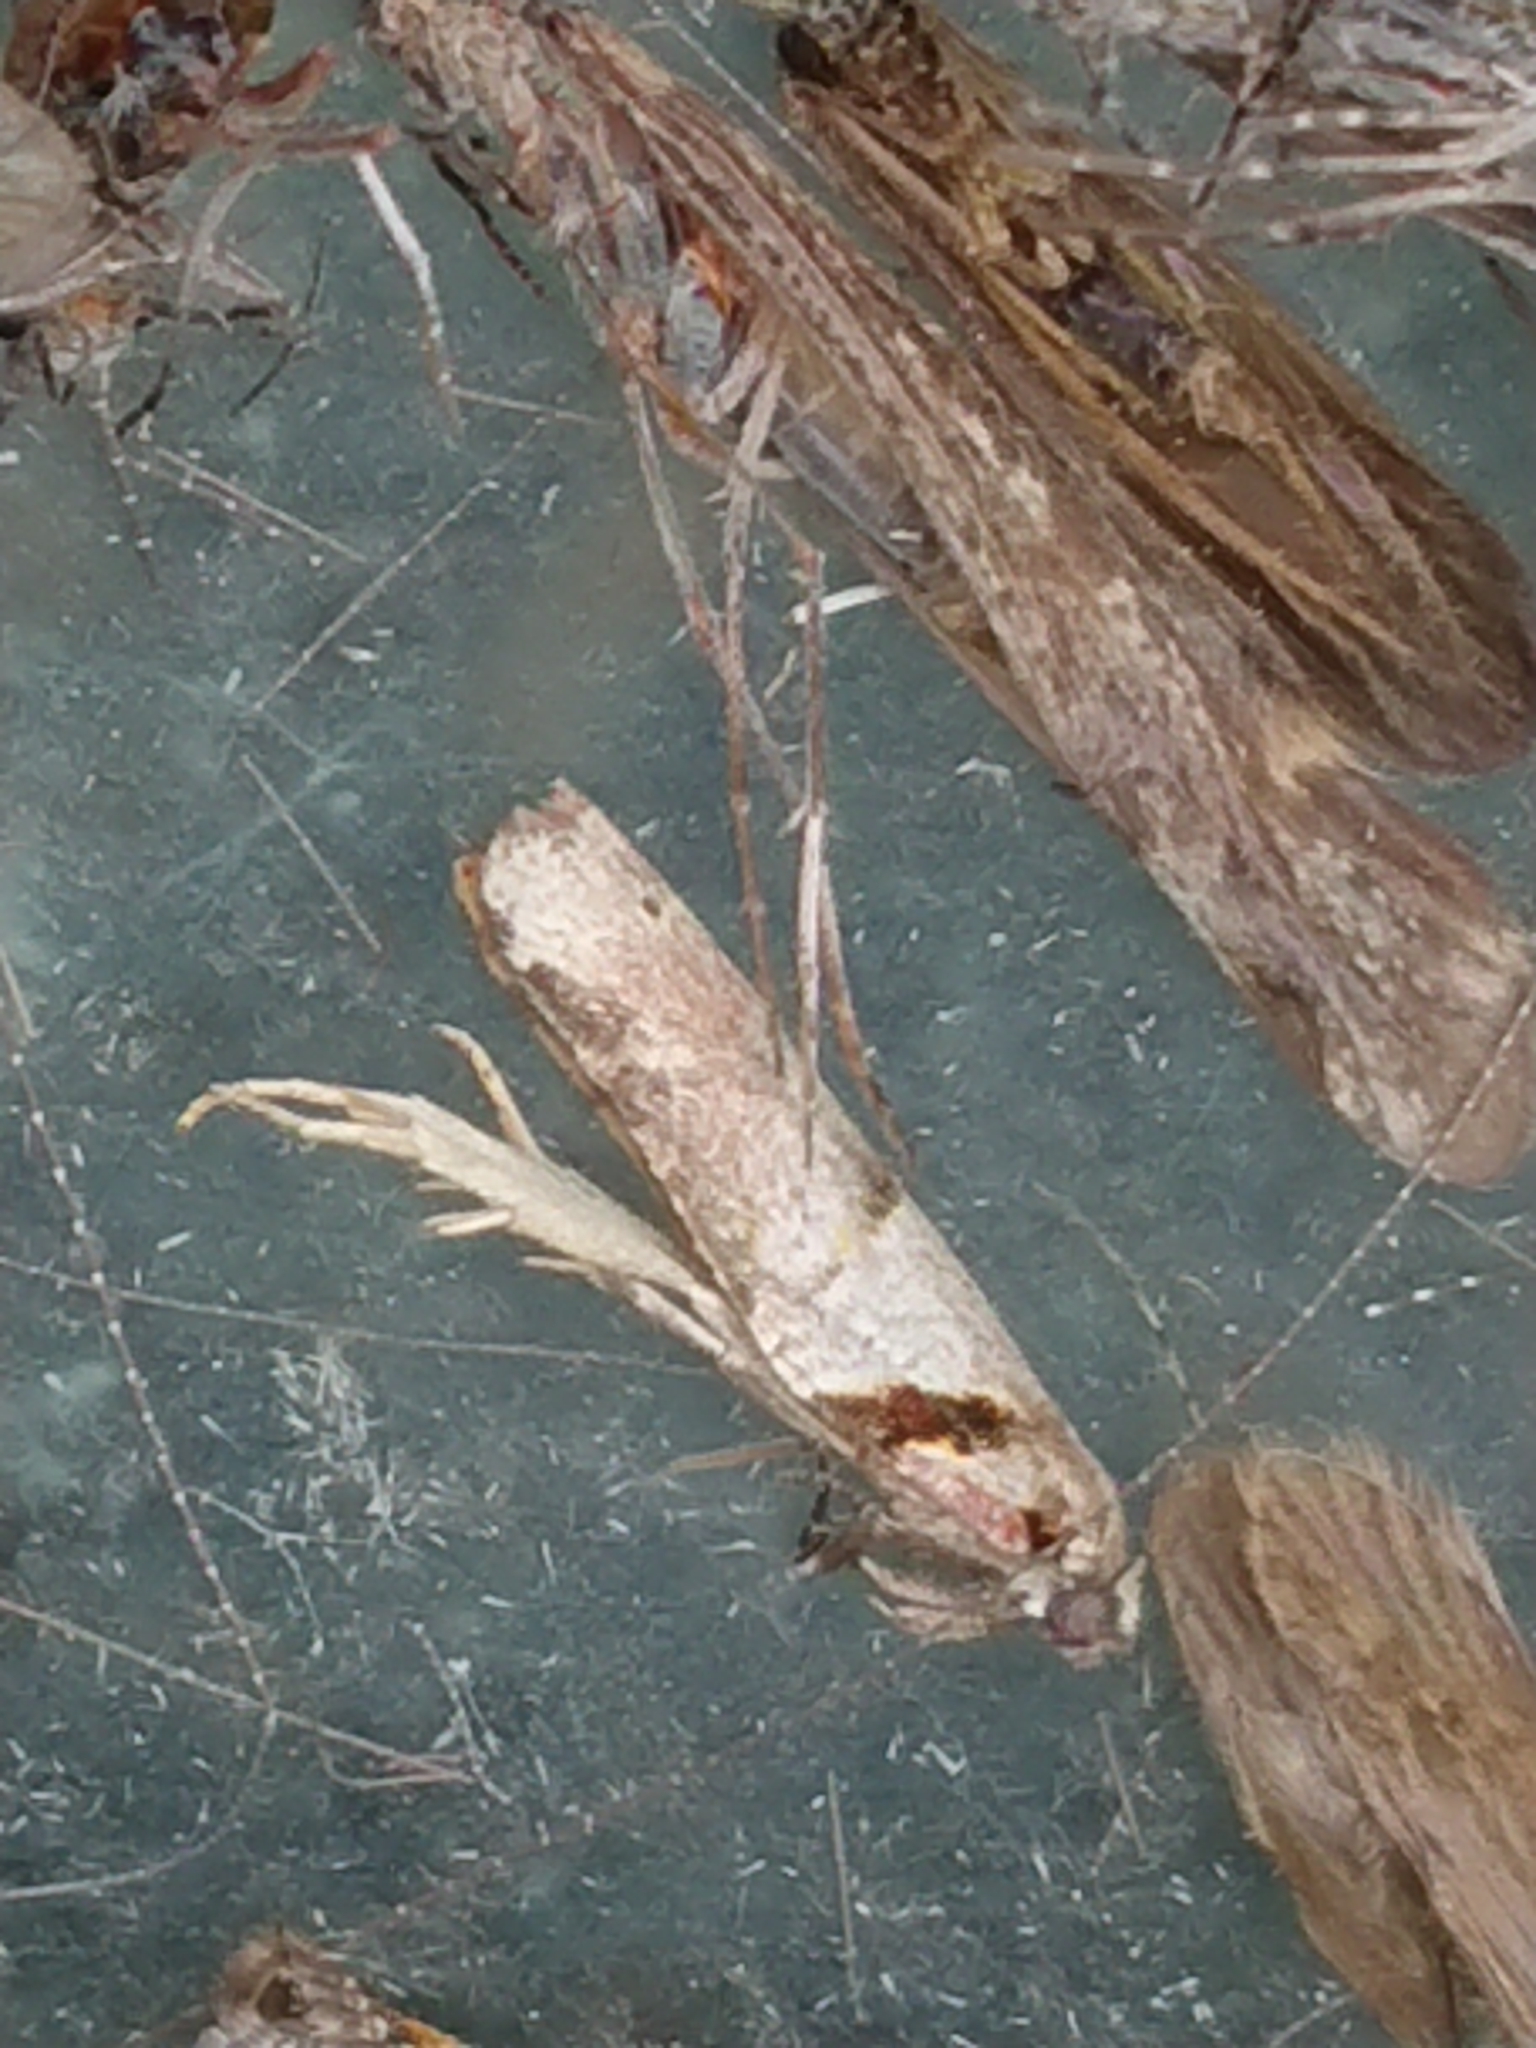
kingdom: Animalia
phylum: Arthropoda
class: Insecta
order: Lepidoptera
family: Tortricidae
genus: Harmologa
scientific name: Harmologa amplexana
